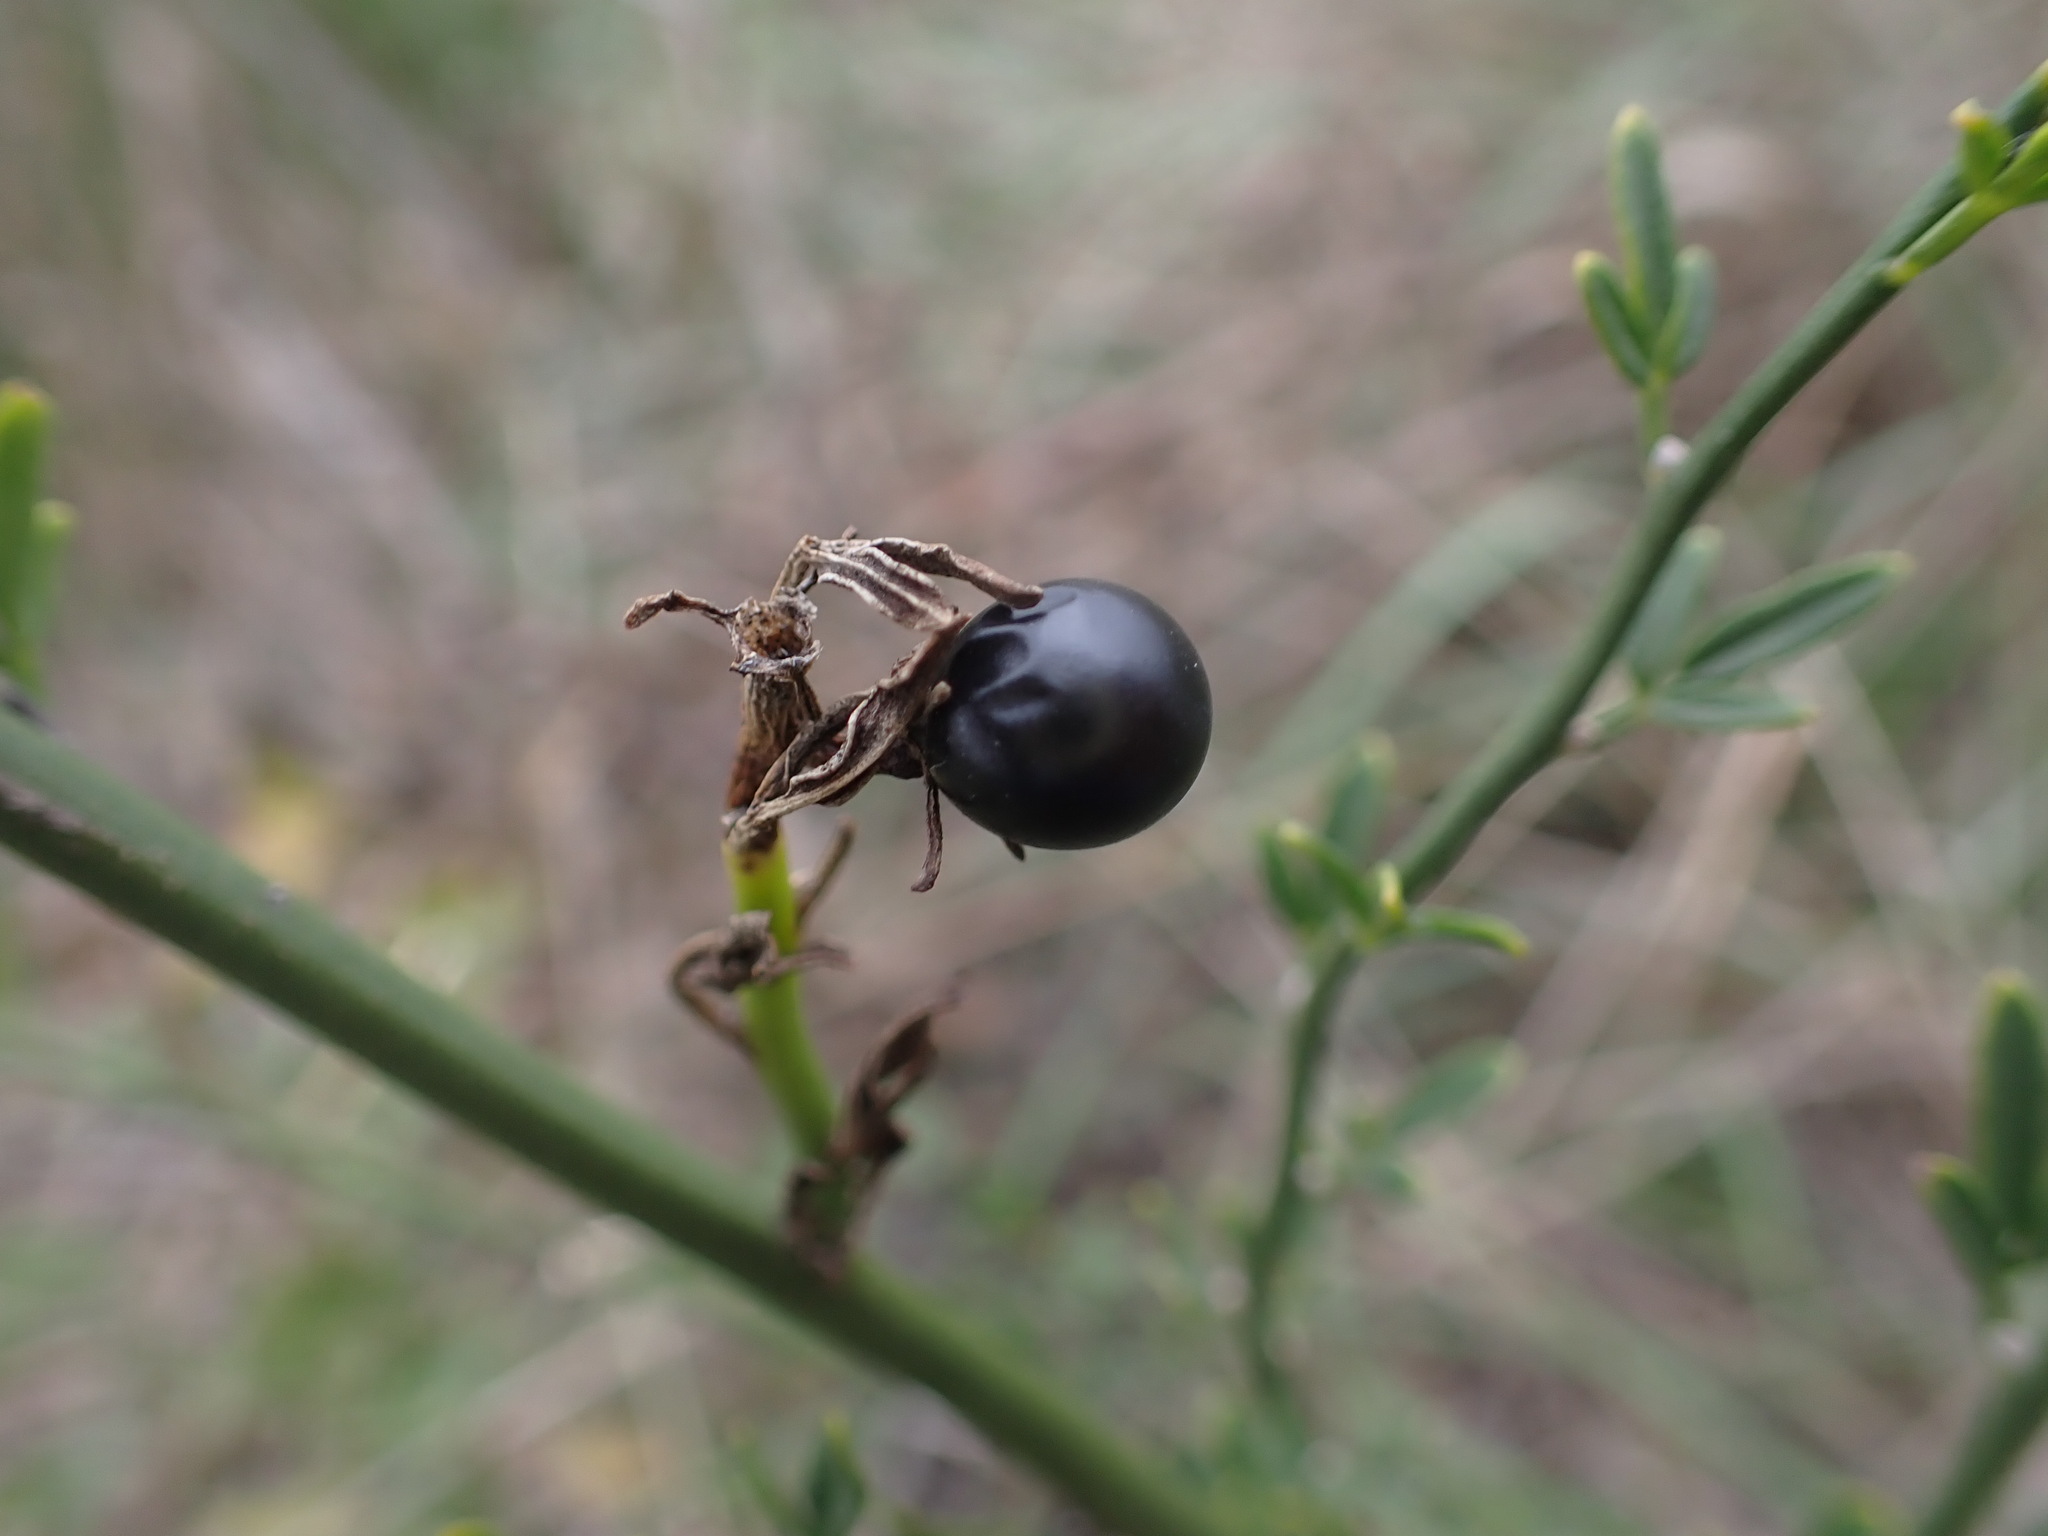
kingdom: Plantae
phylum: Tracheophyta
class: Magnoliopsida
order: Lamiales
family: Oleaceae
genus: Chrysojasminum
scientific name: Chrysojasminum fruticans
